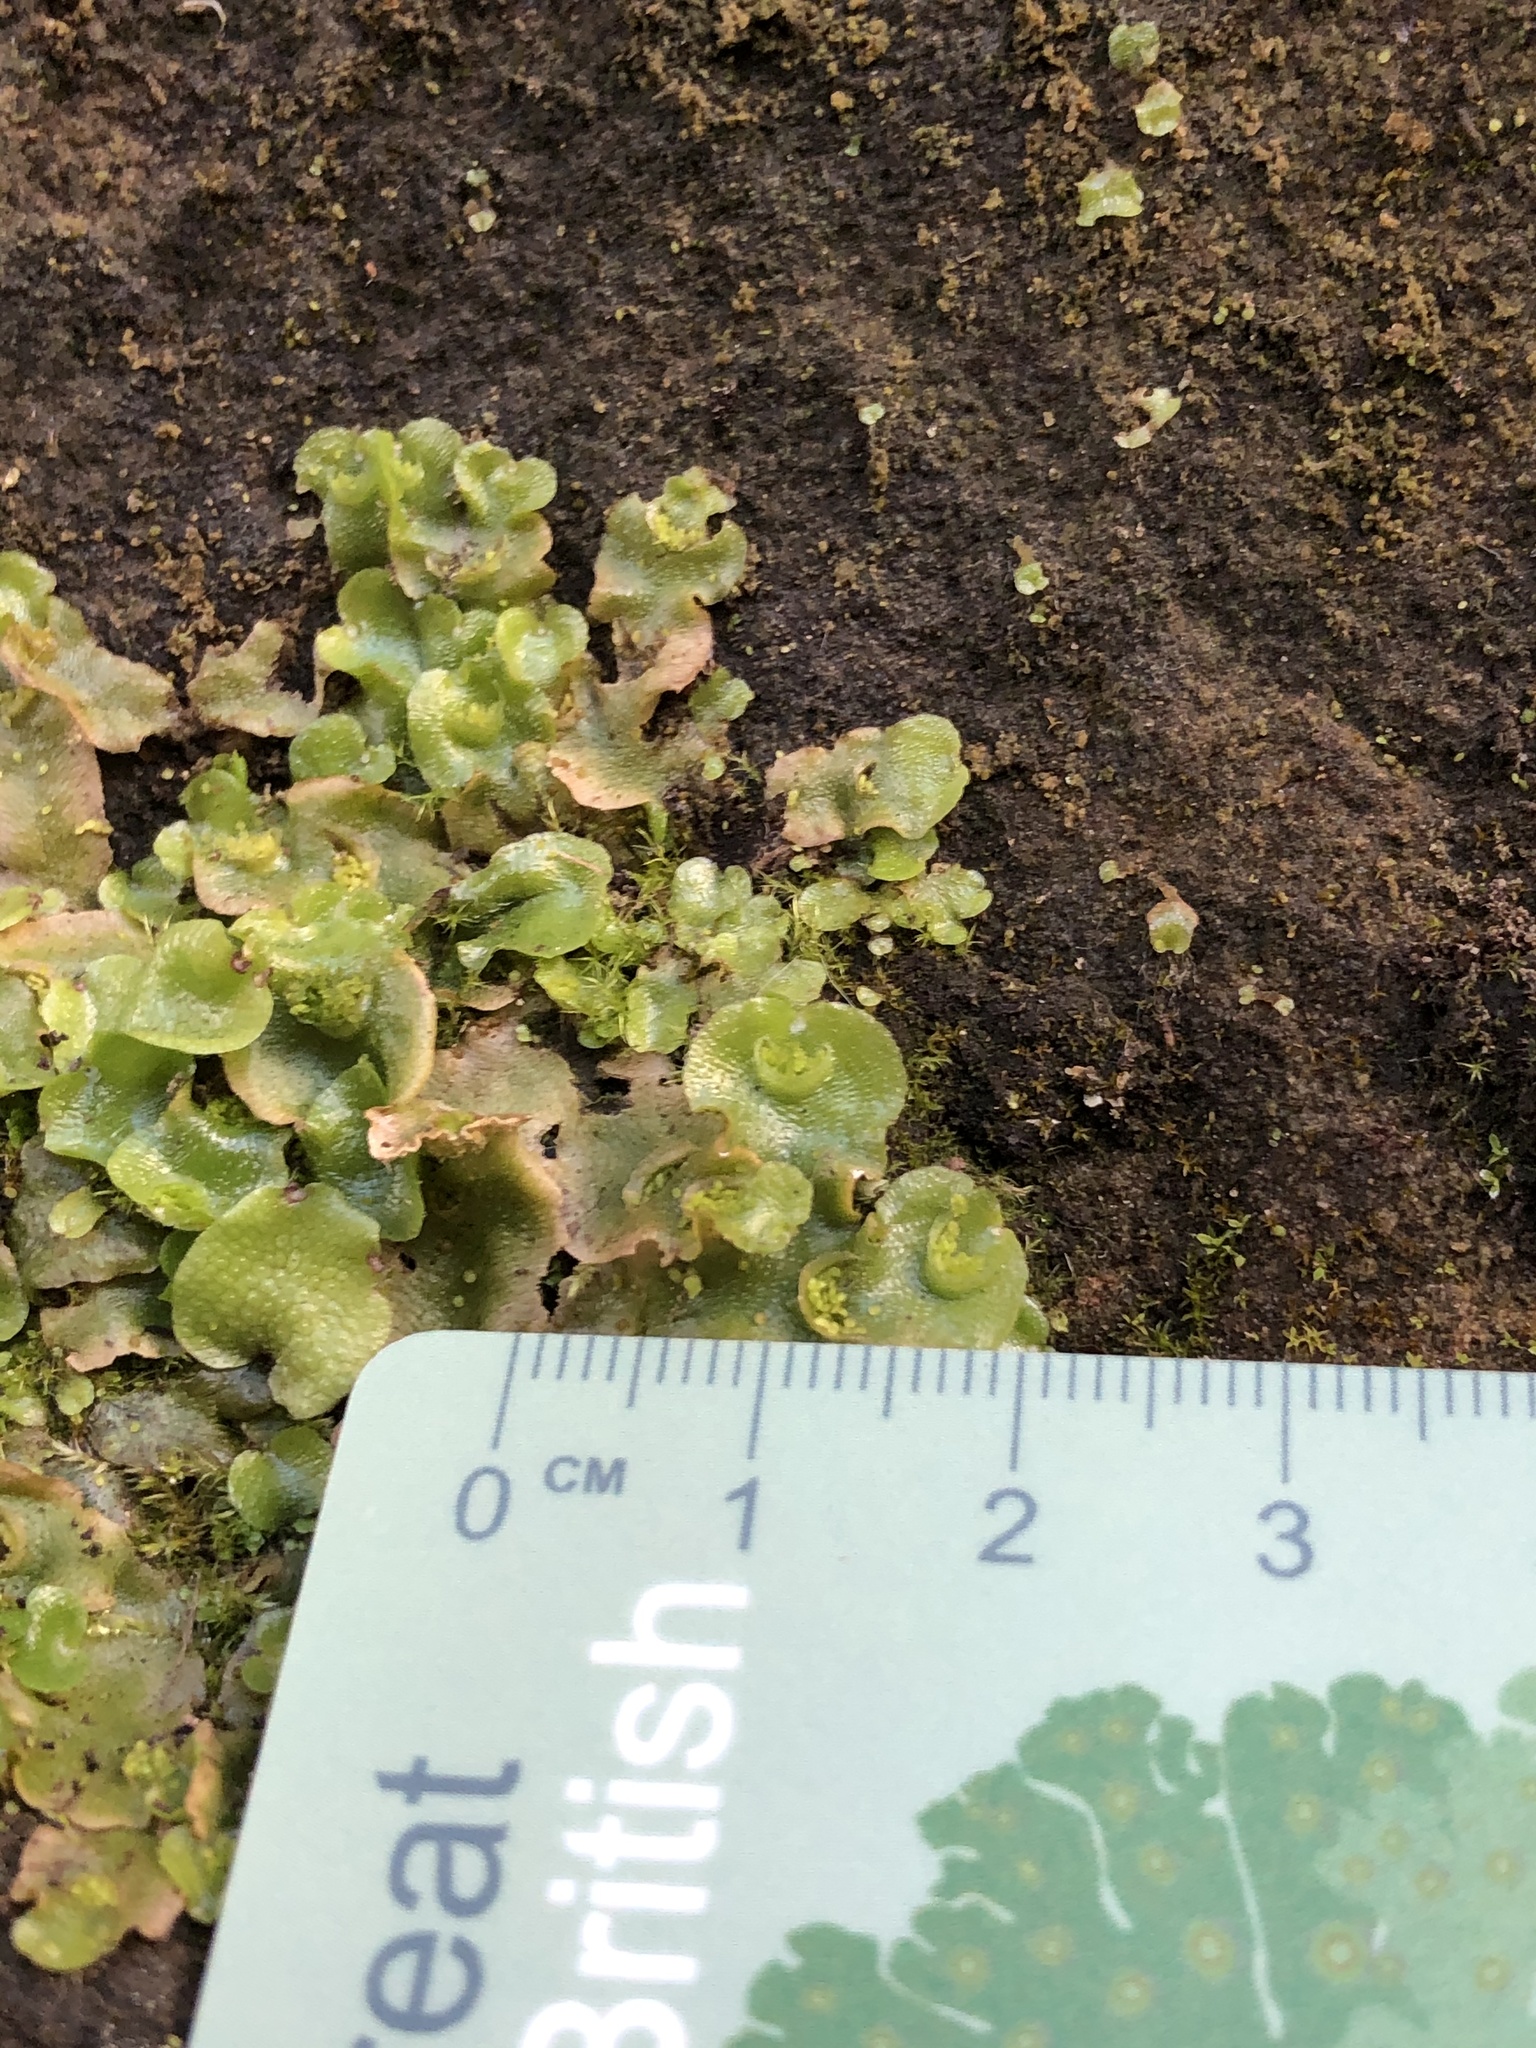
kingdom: Plantae
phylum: Marchantiophyta
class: Marchantiopsida
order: Lunulariales
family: Lunulariaceae
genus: Lunularia
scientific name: Lunularia cruciata
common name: Crescent-cup liverwort
